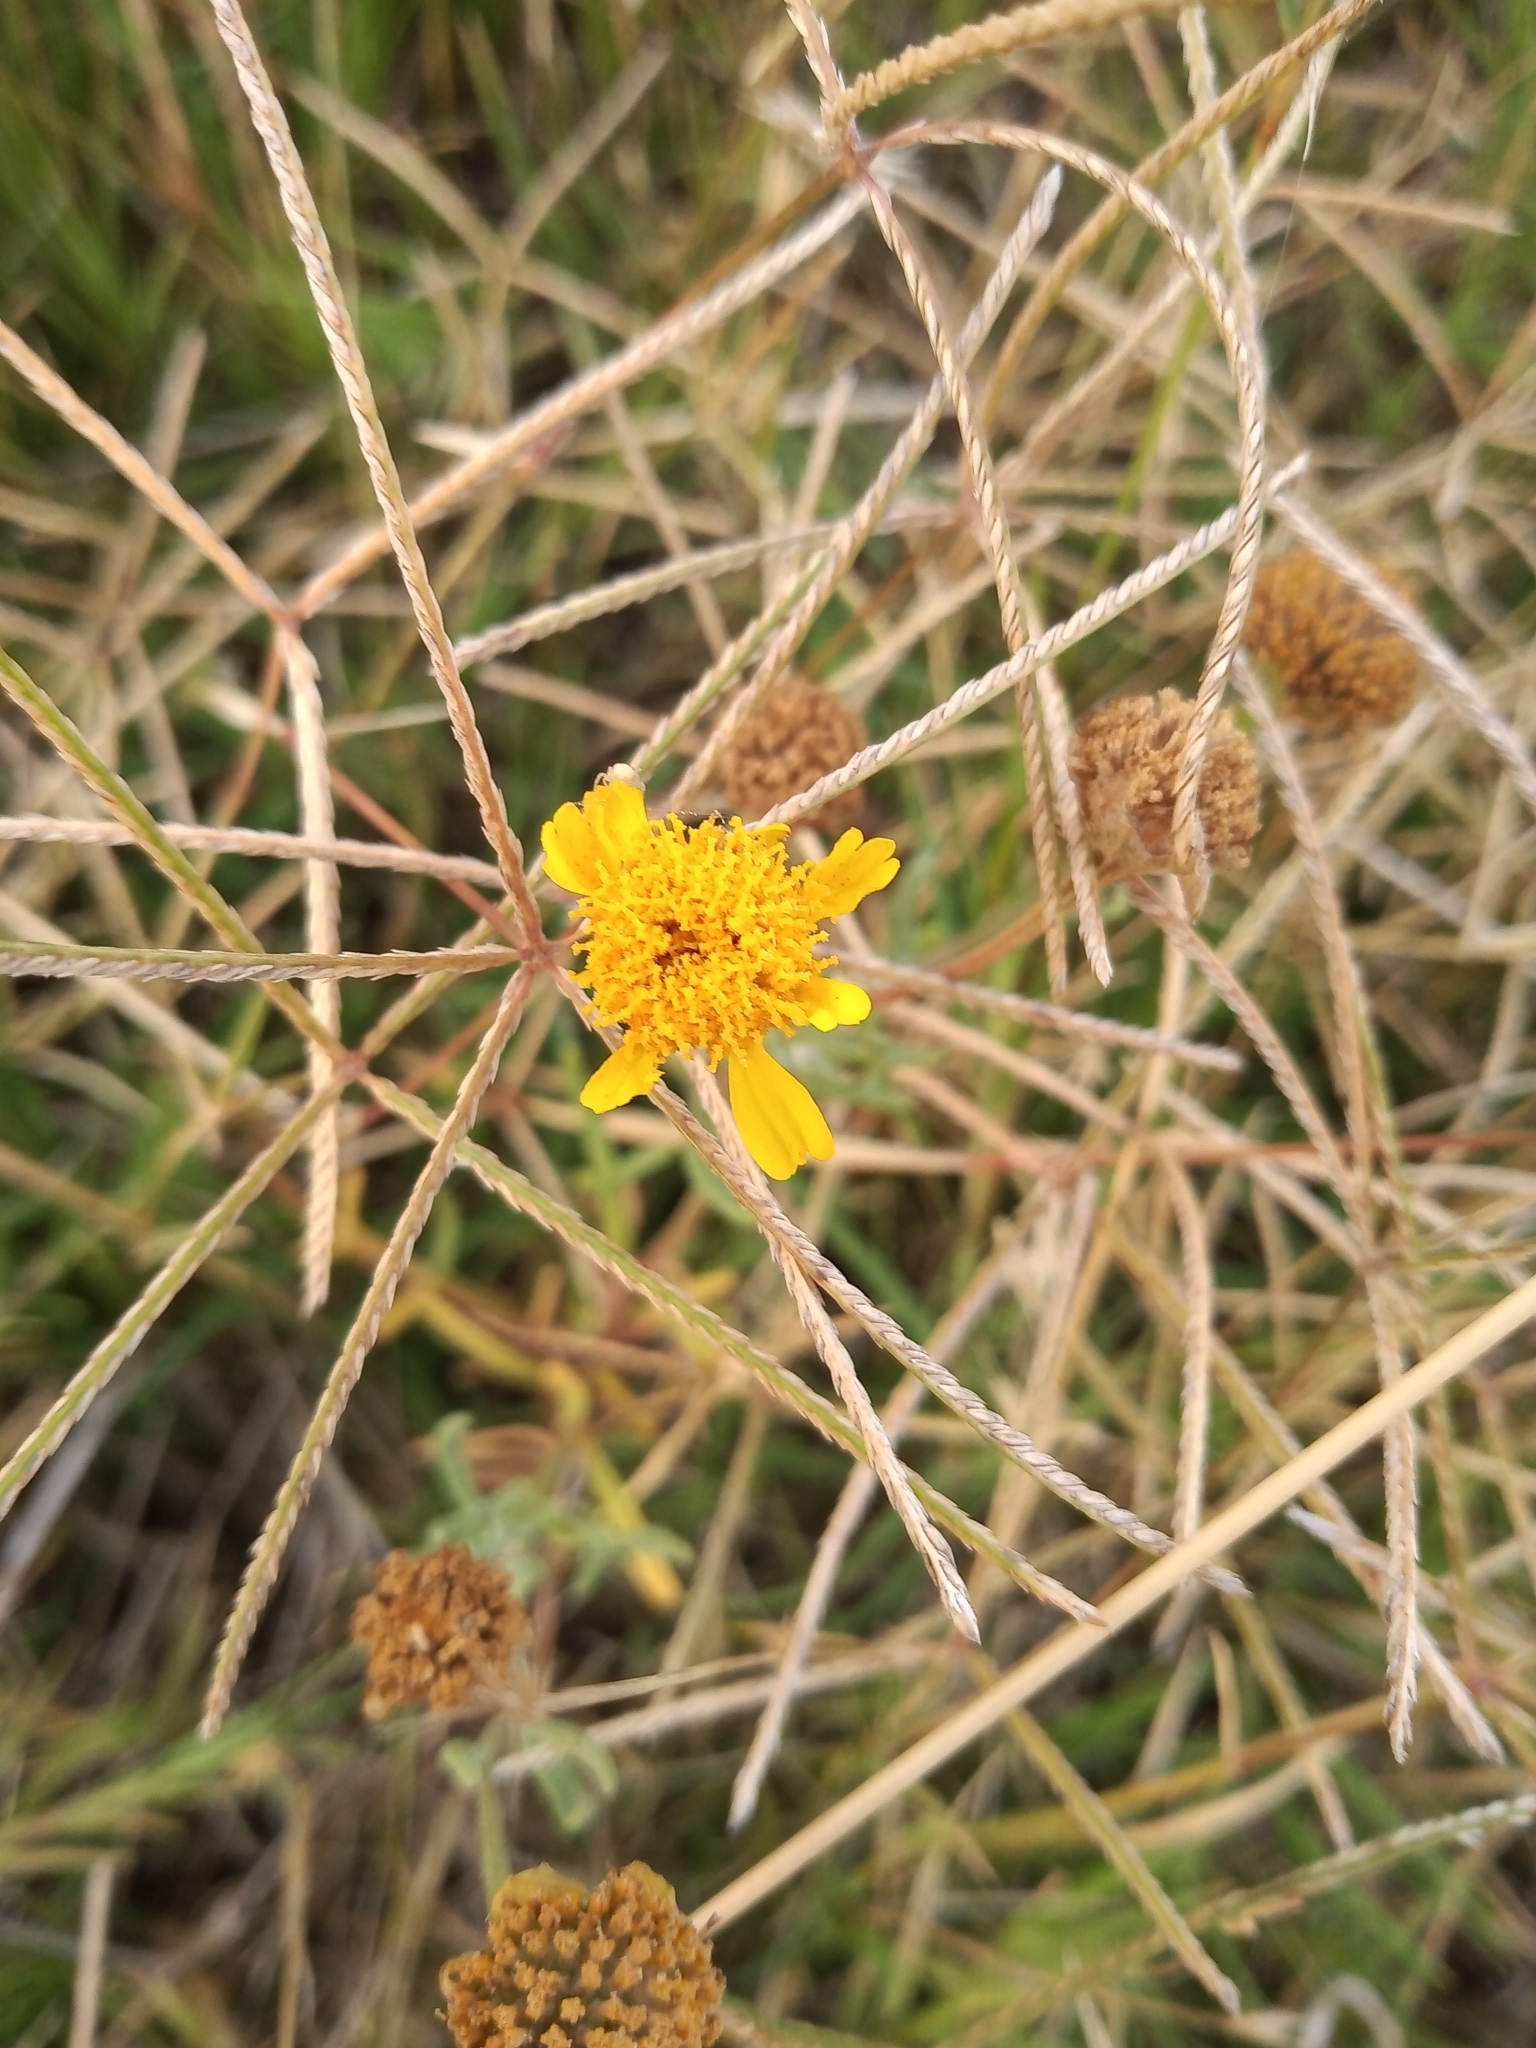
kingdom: Plantae
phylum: Tracheophyta
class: Magnoliopsida
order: Asterales
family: Asteraceae
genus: Hymenoxys
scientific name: Hymenoxys megapotamica
